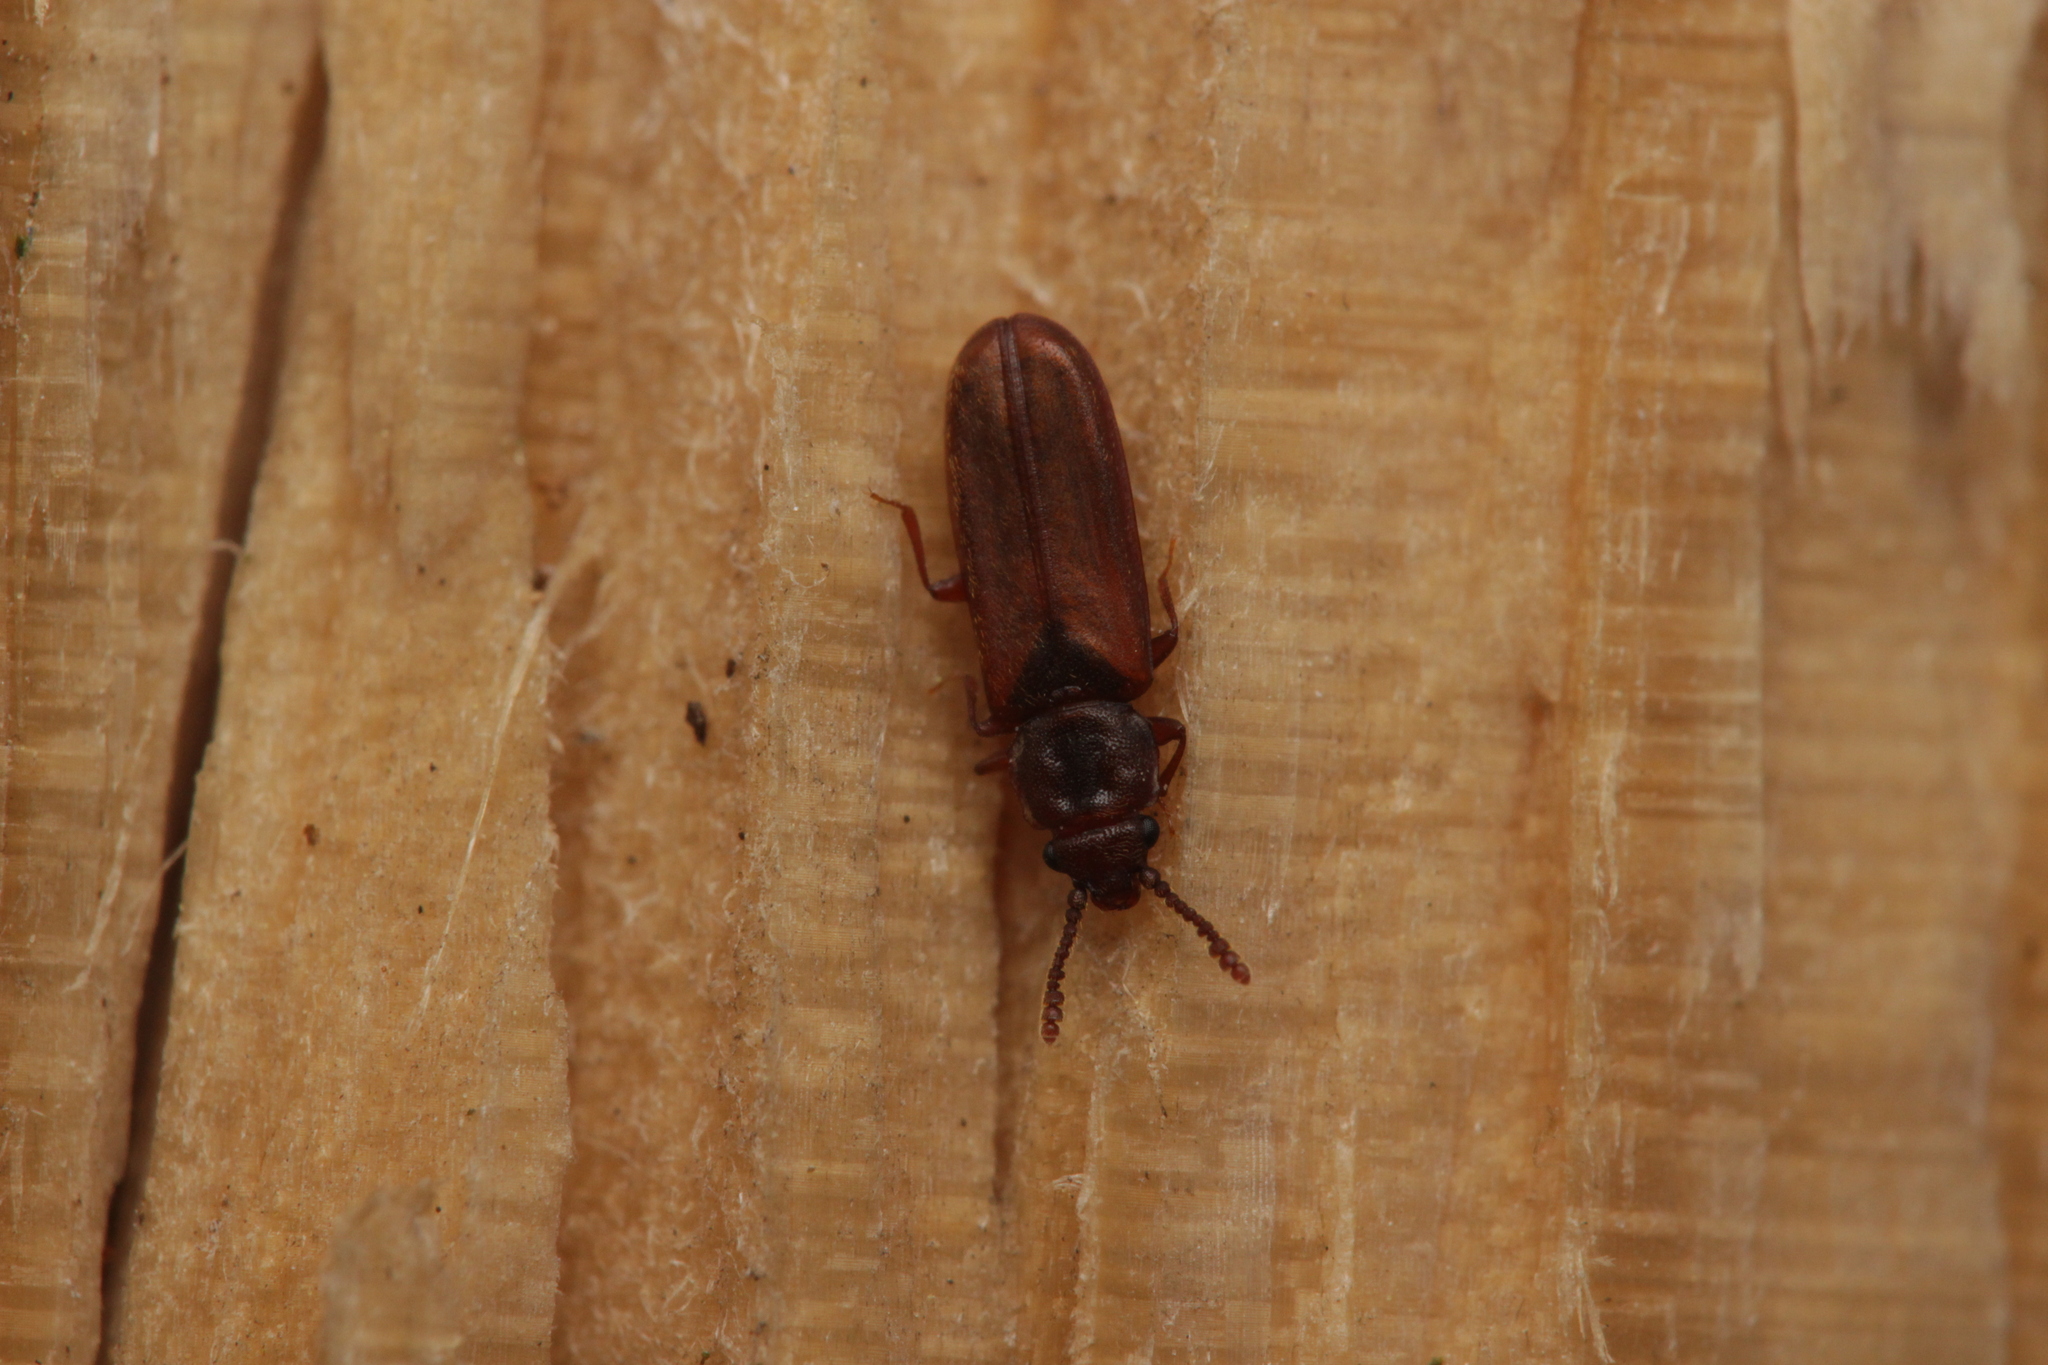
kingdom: Animalia
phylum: Arthropoda
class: Insecta
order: Coleoptera
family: Cucujidae
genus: Pediacus
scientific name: Pediacus depressus
